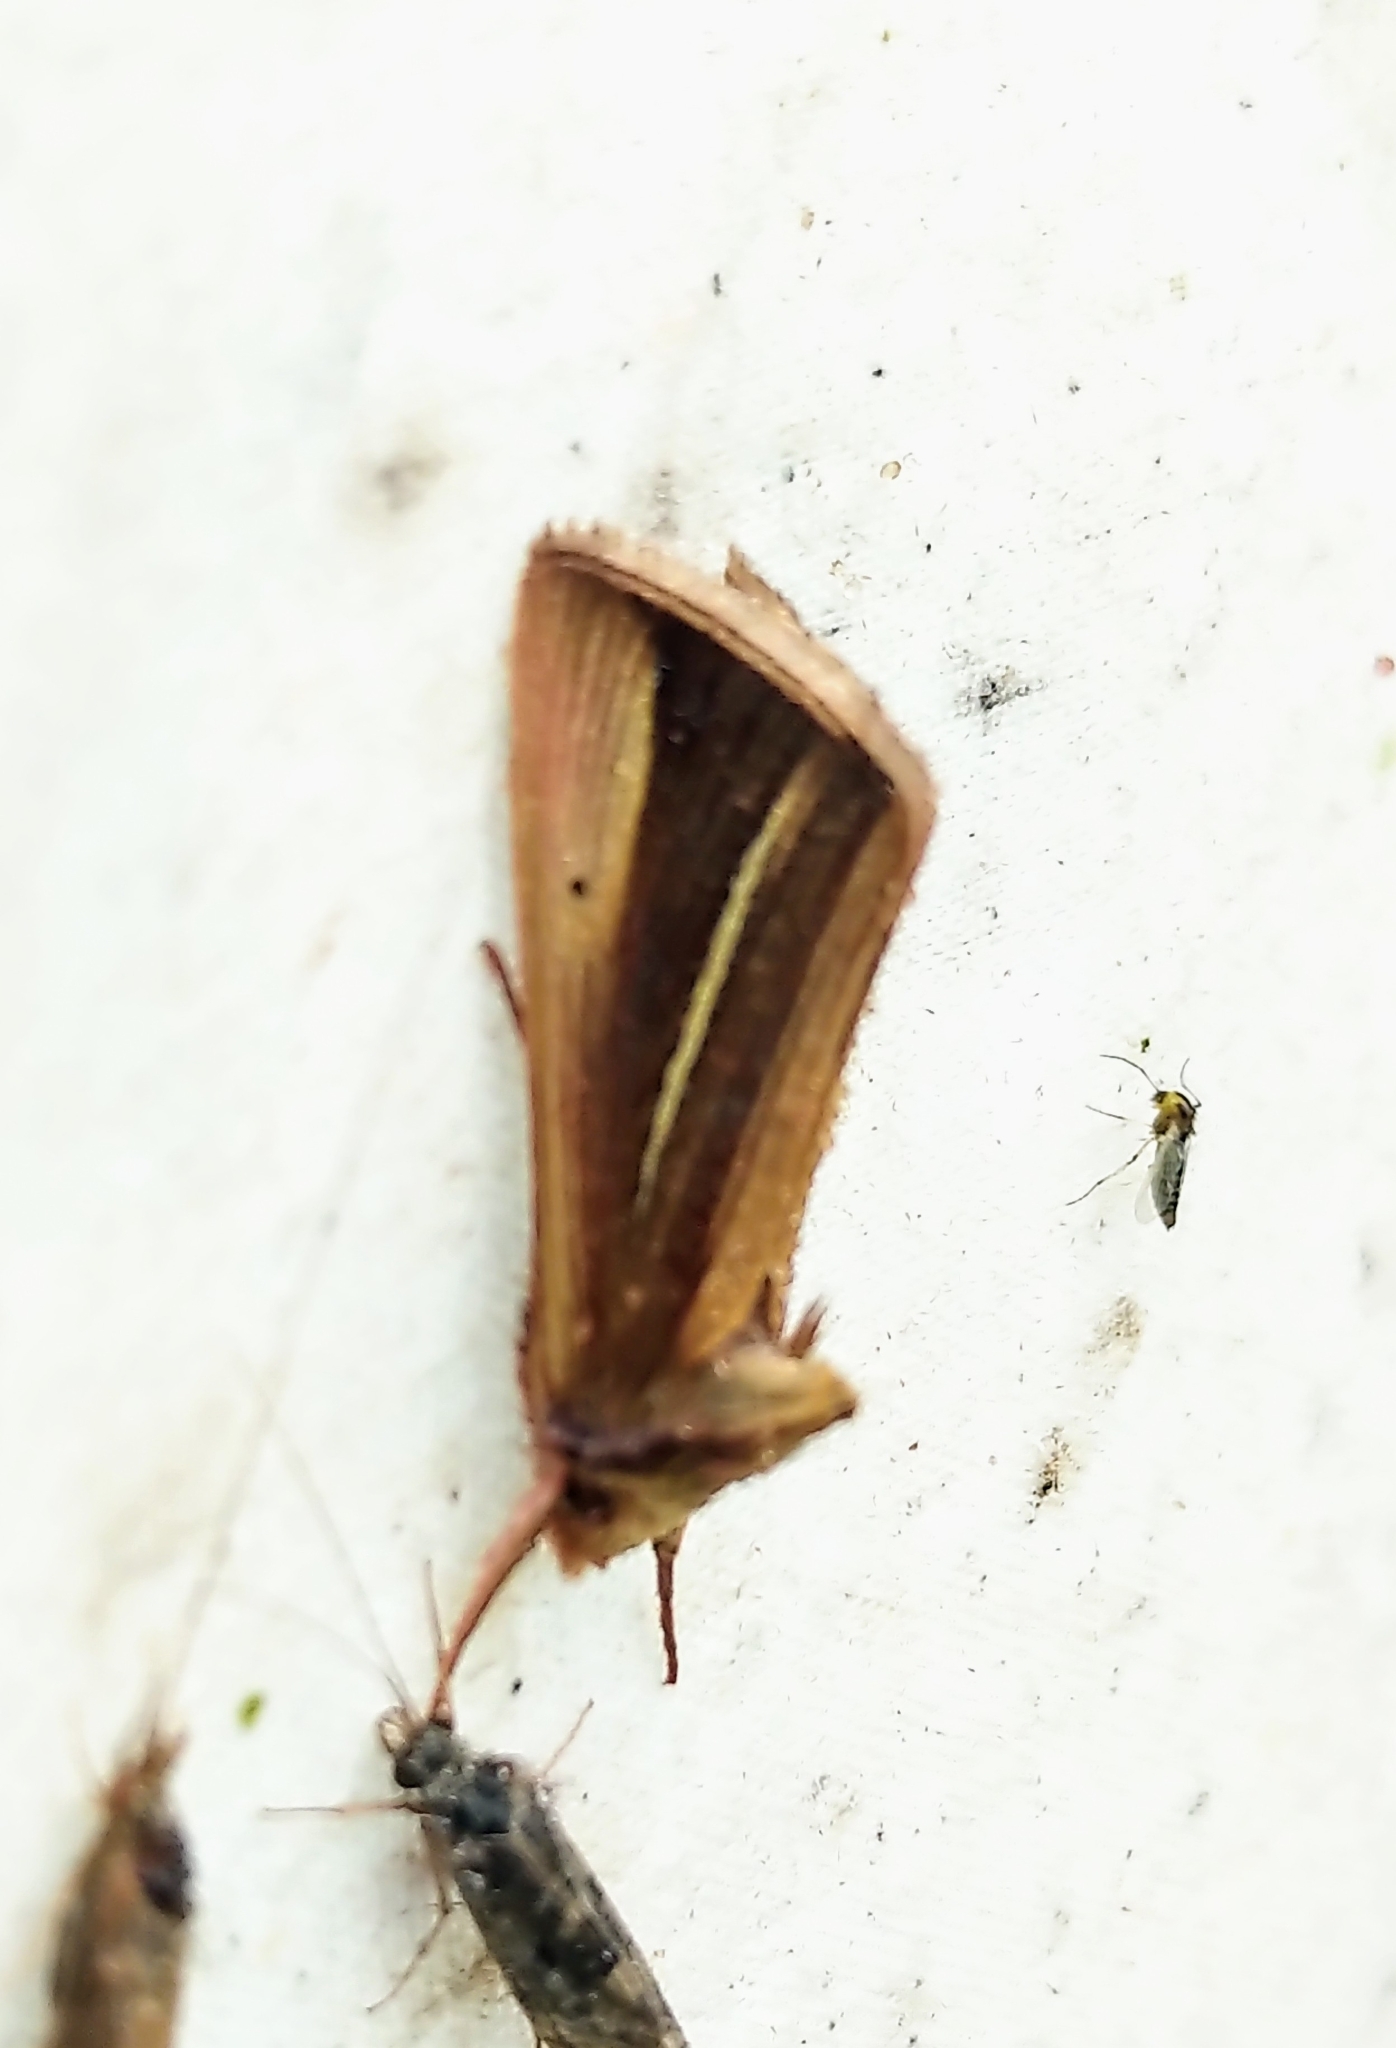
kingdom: Animalia
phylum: Arthropoda
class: Insecta
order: Lepidoptera
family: Noctuidae
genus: Plusia
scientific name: Plusia venusta
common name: White-streaked looper moth
